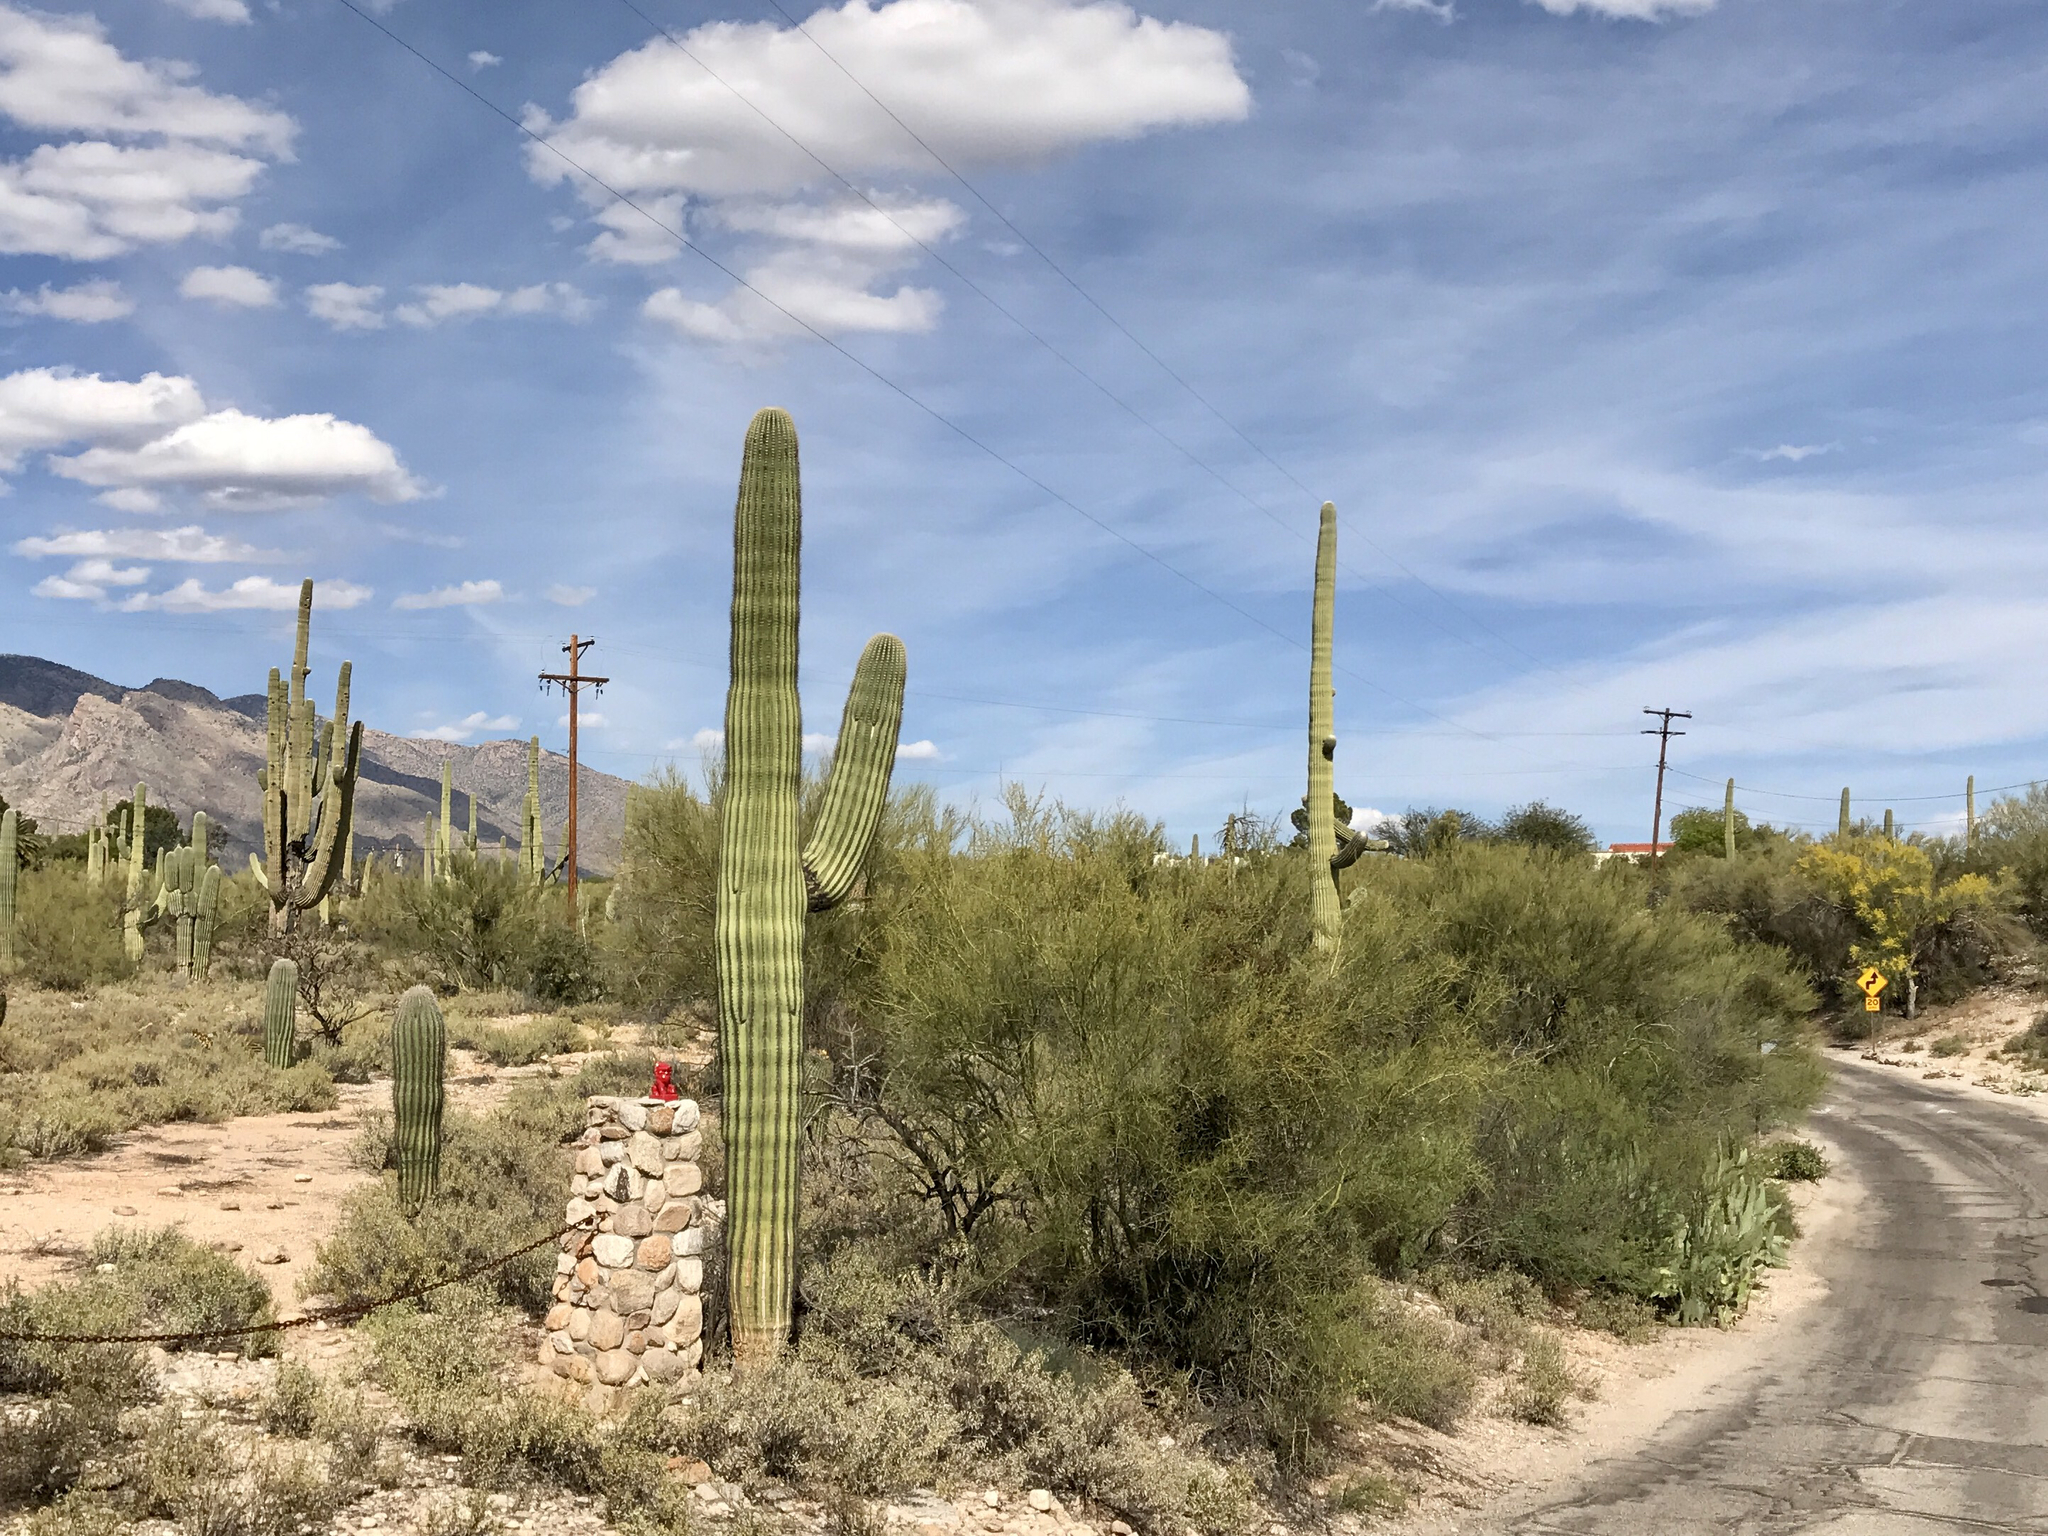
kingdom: Plantae
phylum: Tracheophyta
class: Magnoliopsida
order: Caryophyllales
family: Cactaceae
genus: Carnegiea
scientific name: Carnegiea gigantea
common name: Saguaro
